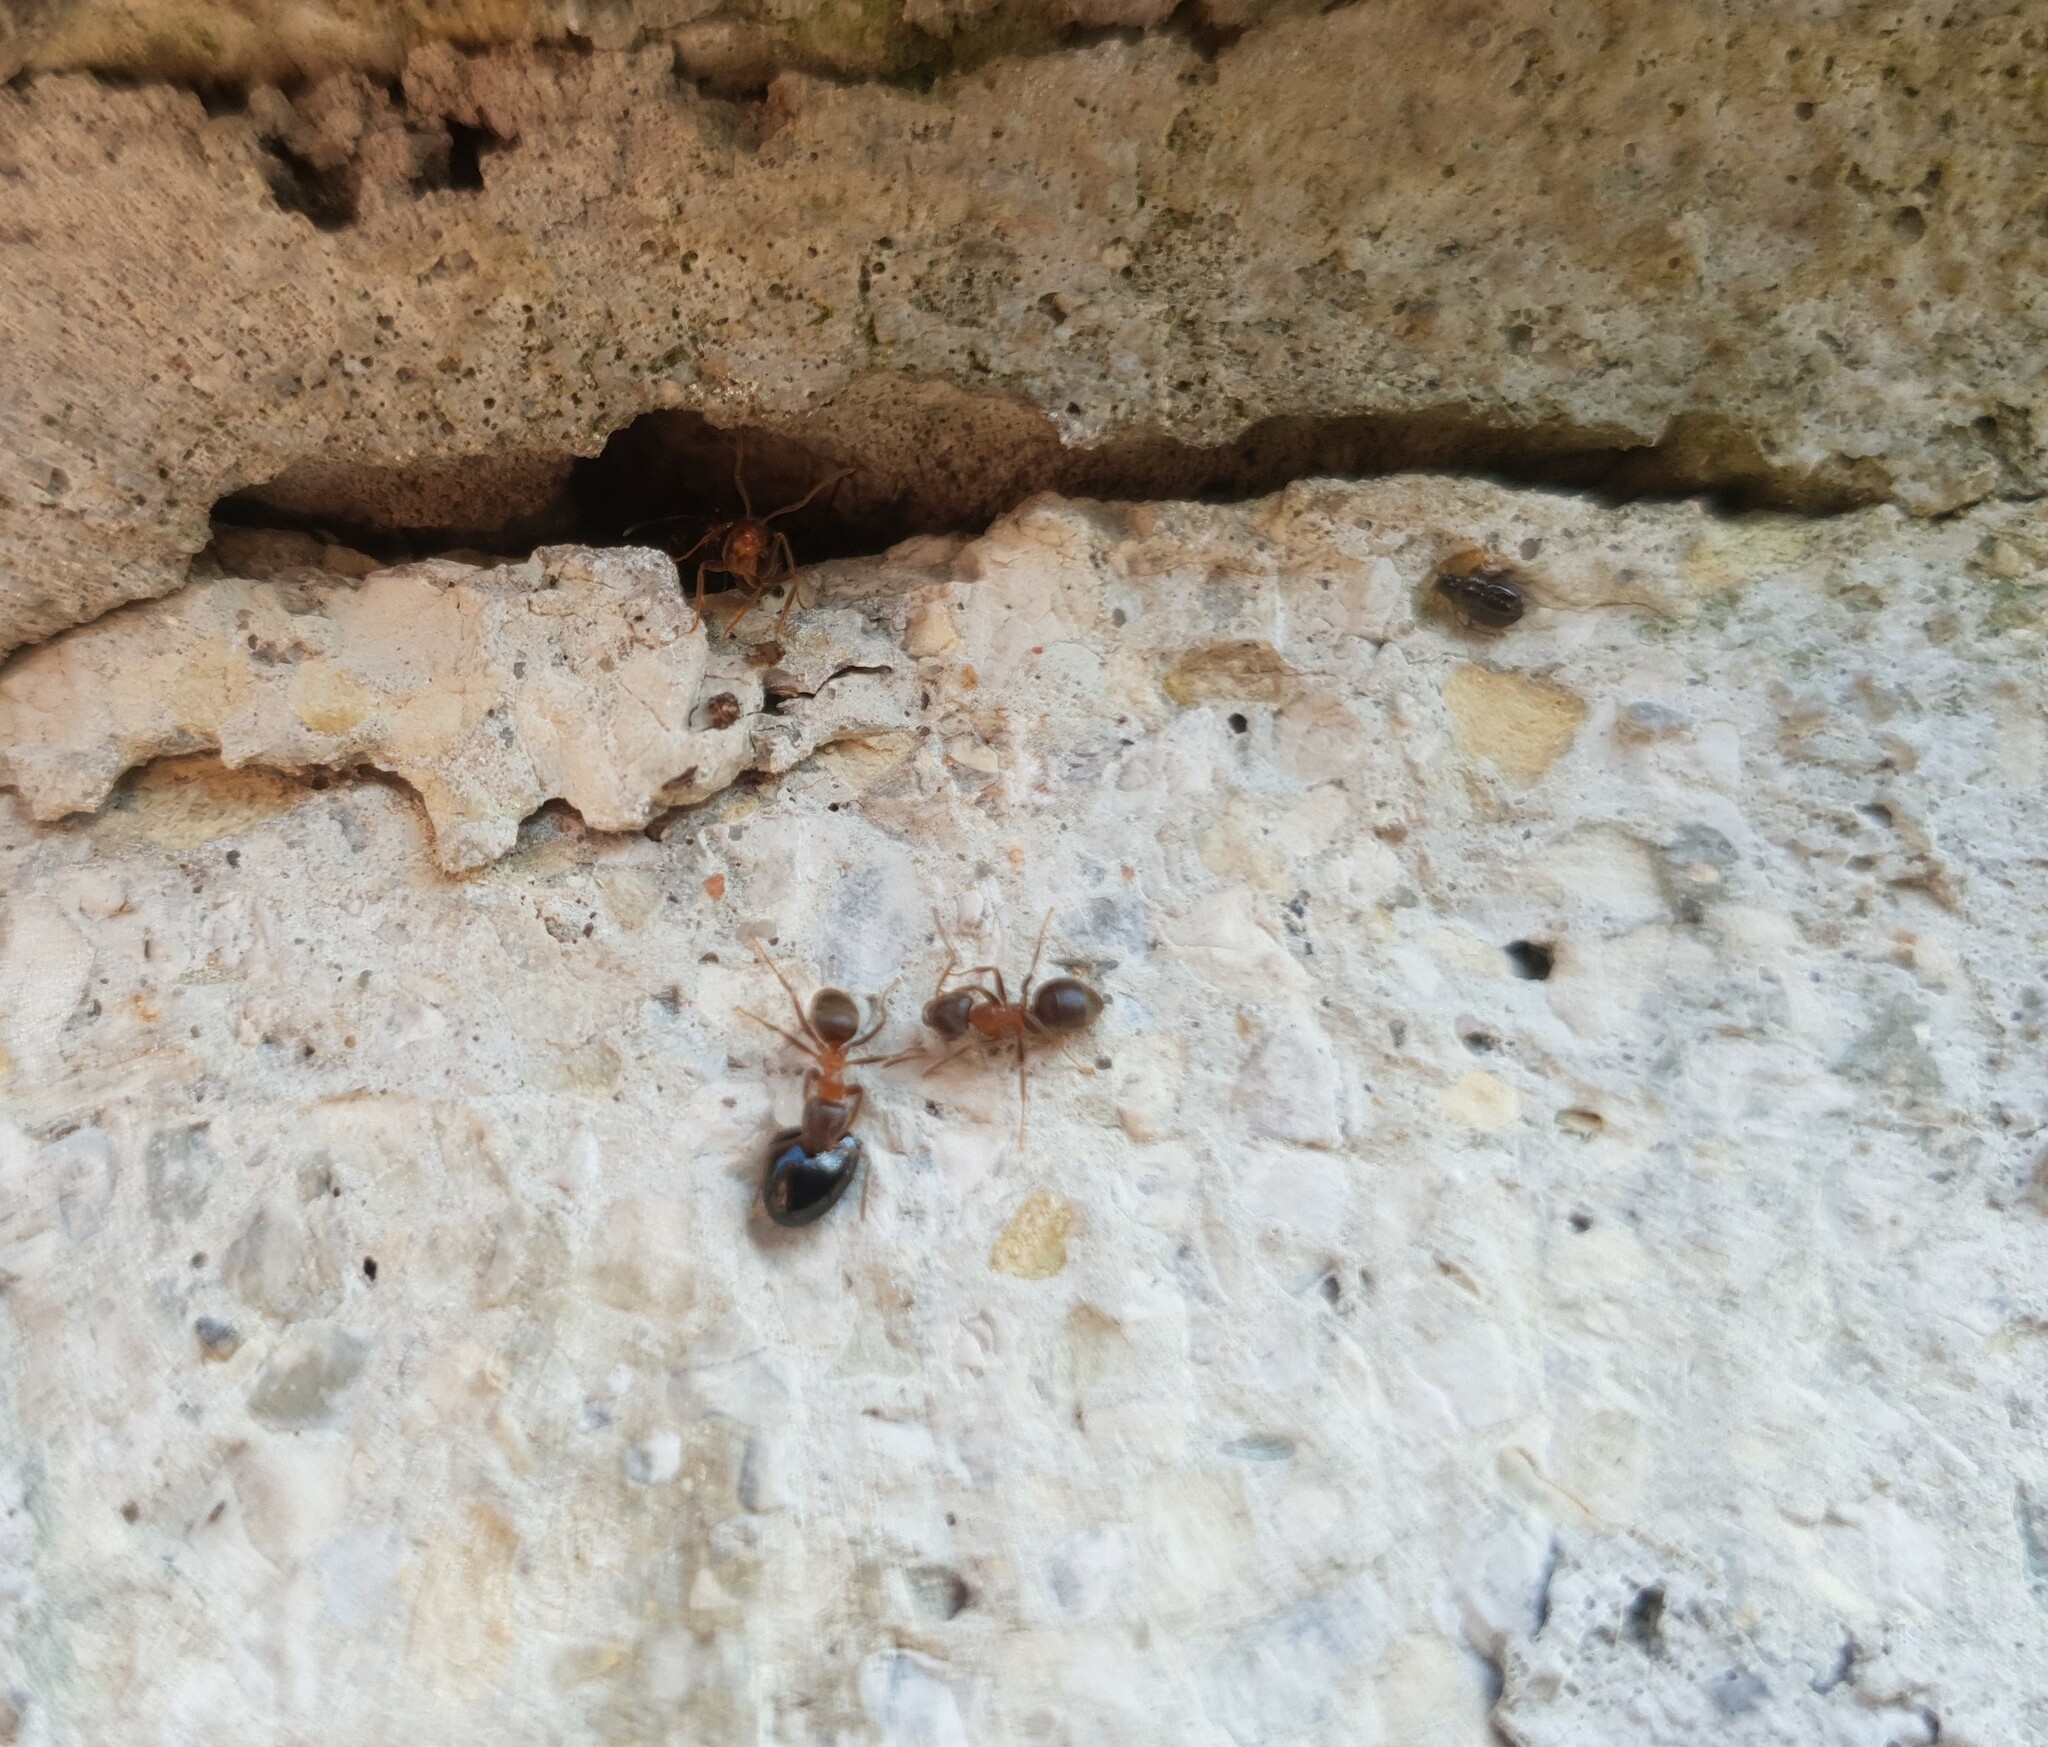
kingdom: Animalia
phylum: Arthropoda
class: Insecta
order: Hymenoptera
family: Formicidae
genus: Lasius
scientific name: Lasius emarginatus
